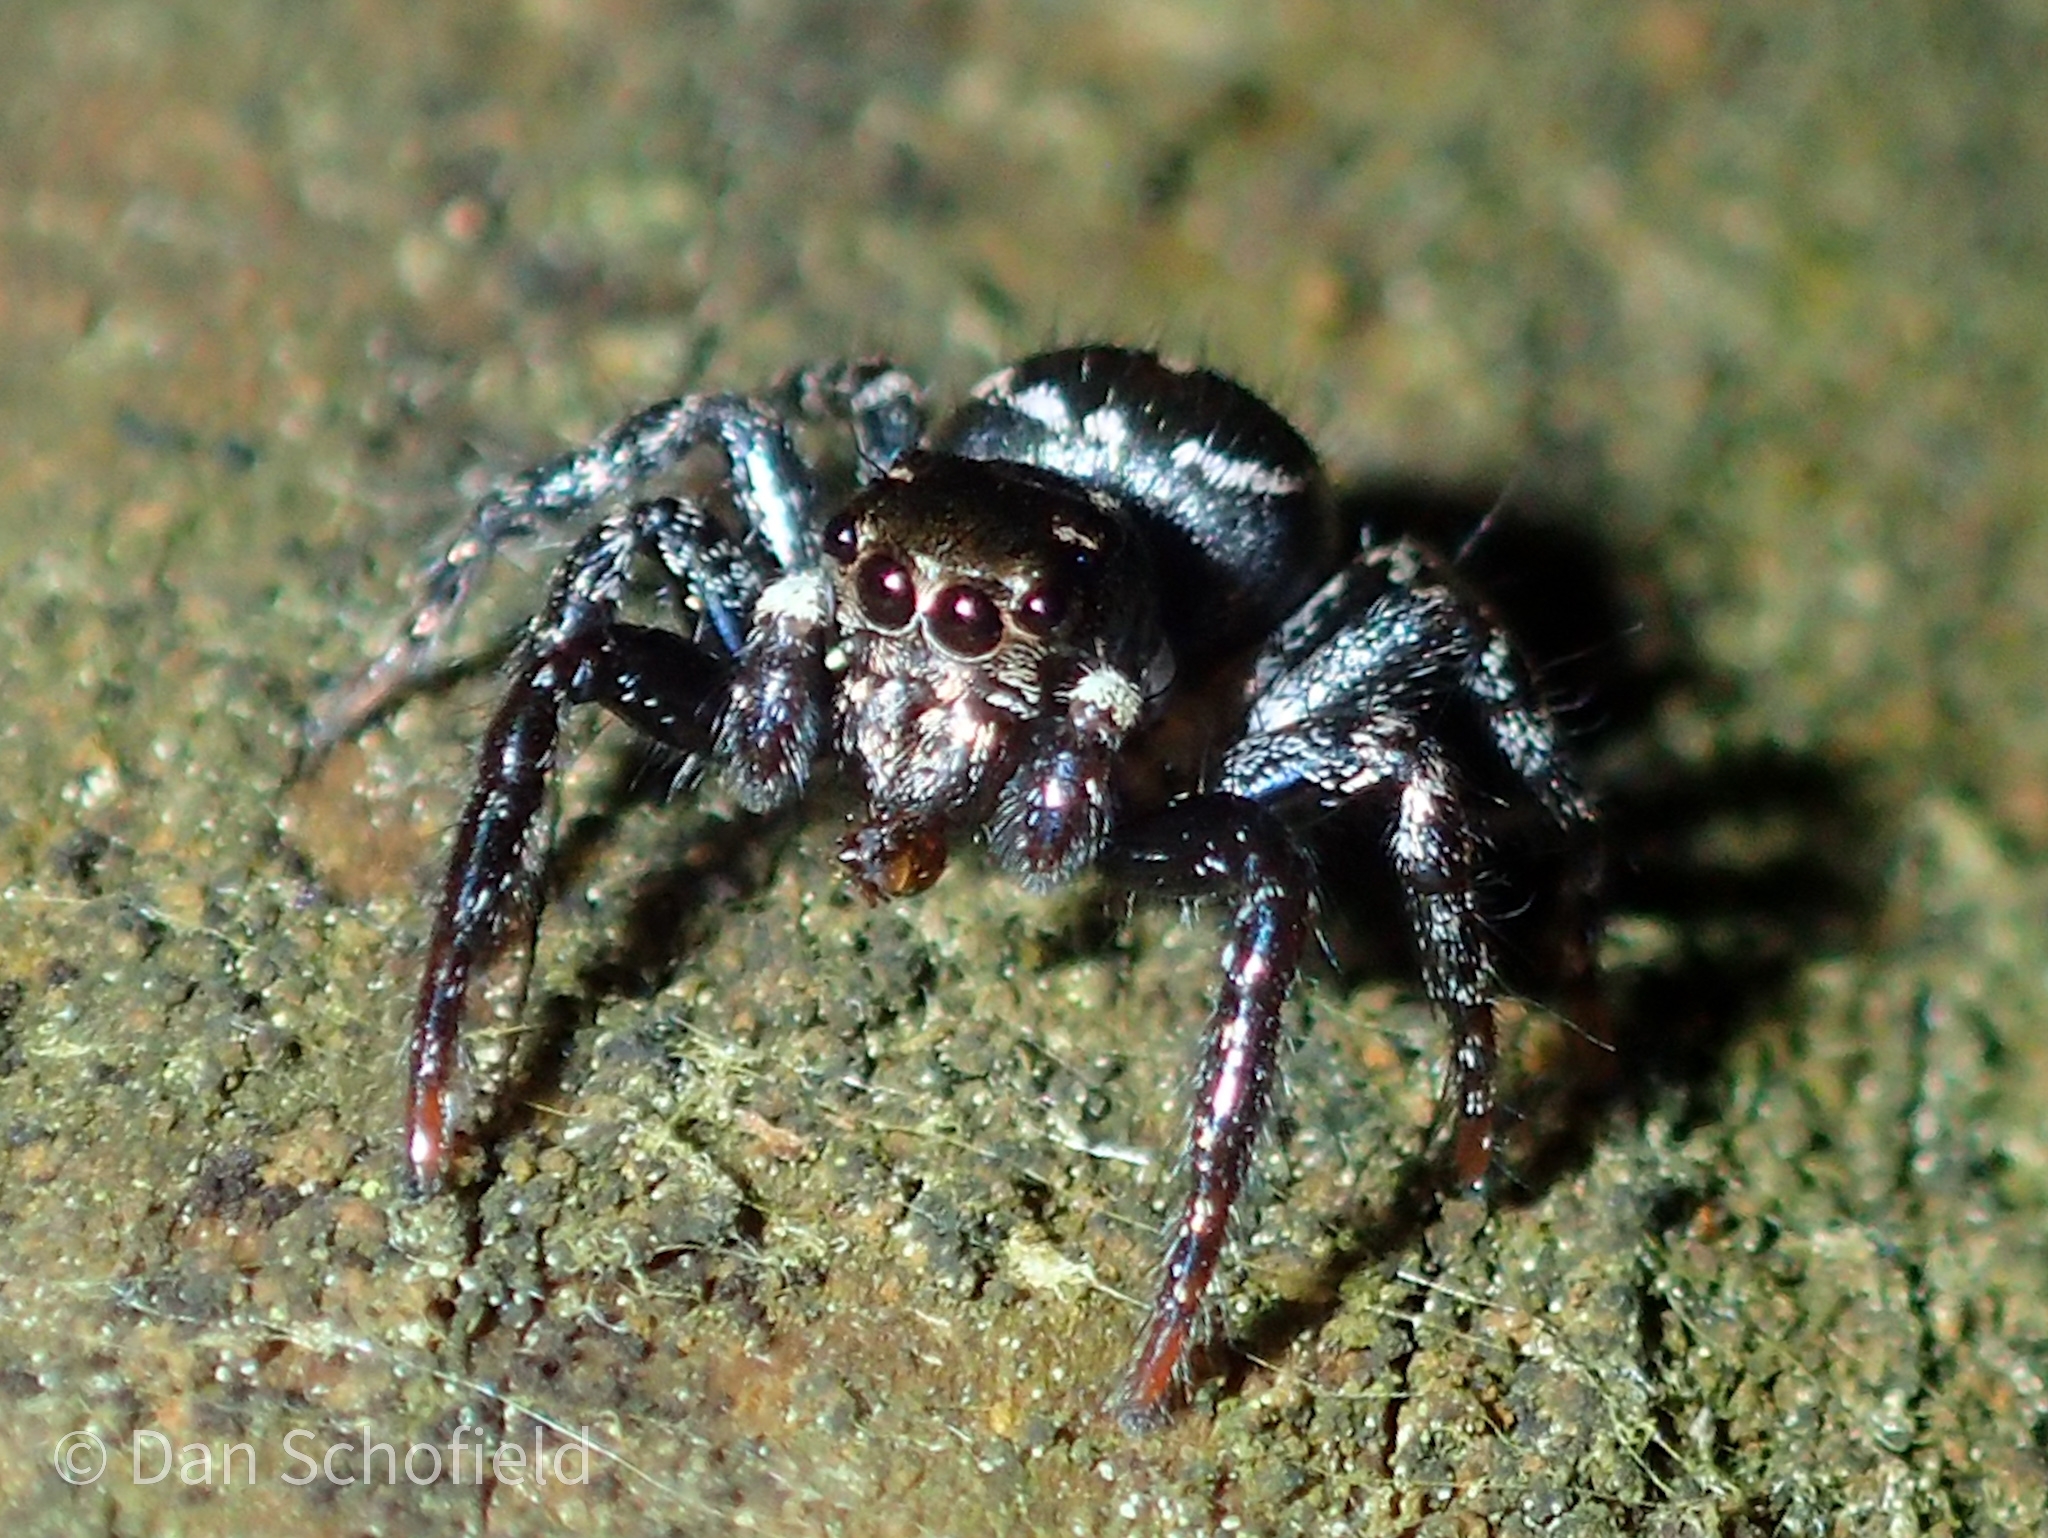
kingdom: Animalia
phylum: Arthropoda
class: Arachnida
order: Araneae
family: Salticidae
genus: Anasaitis
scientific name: Anasaitis canosa
